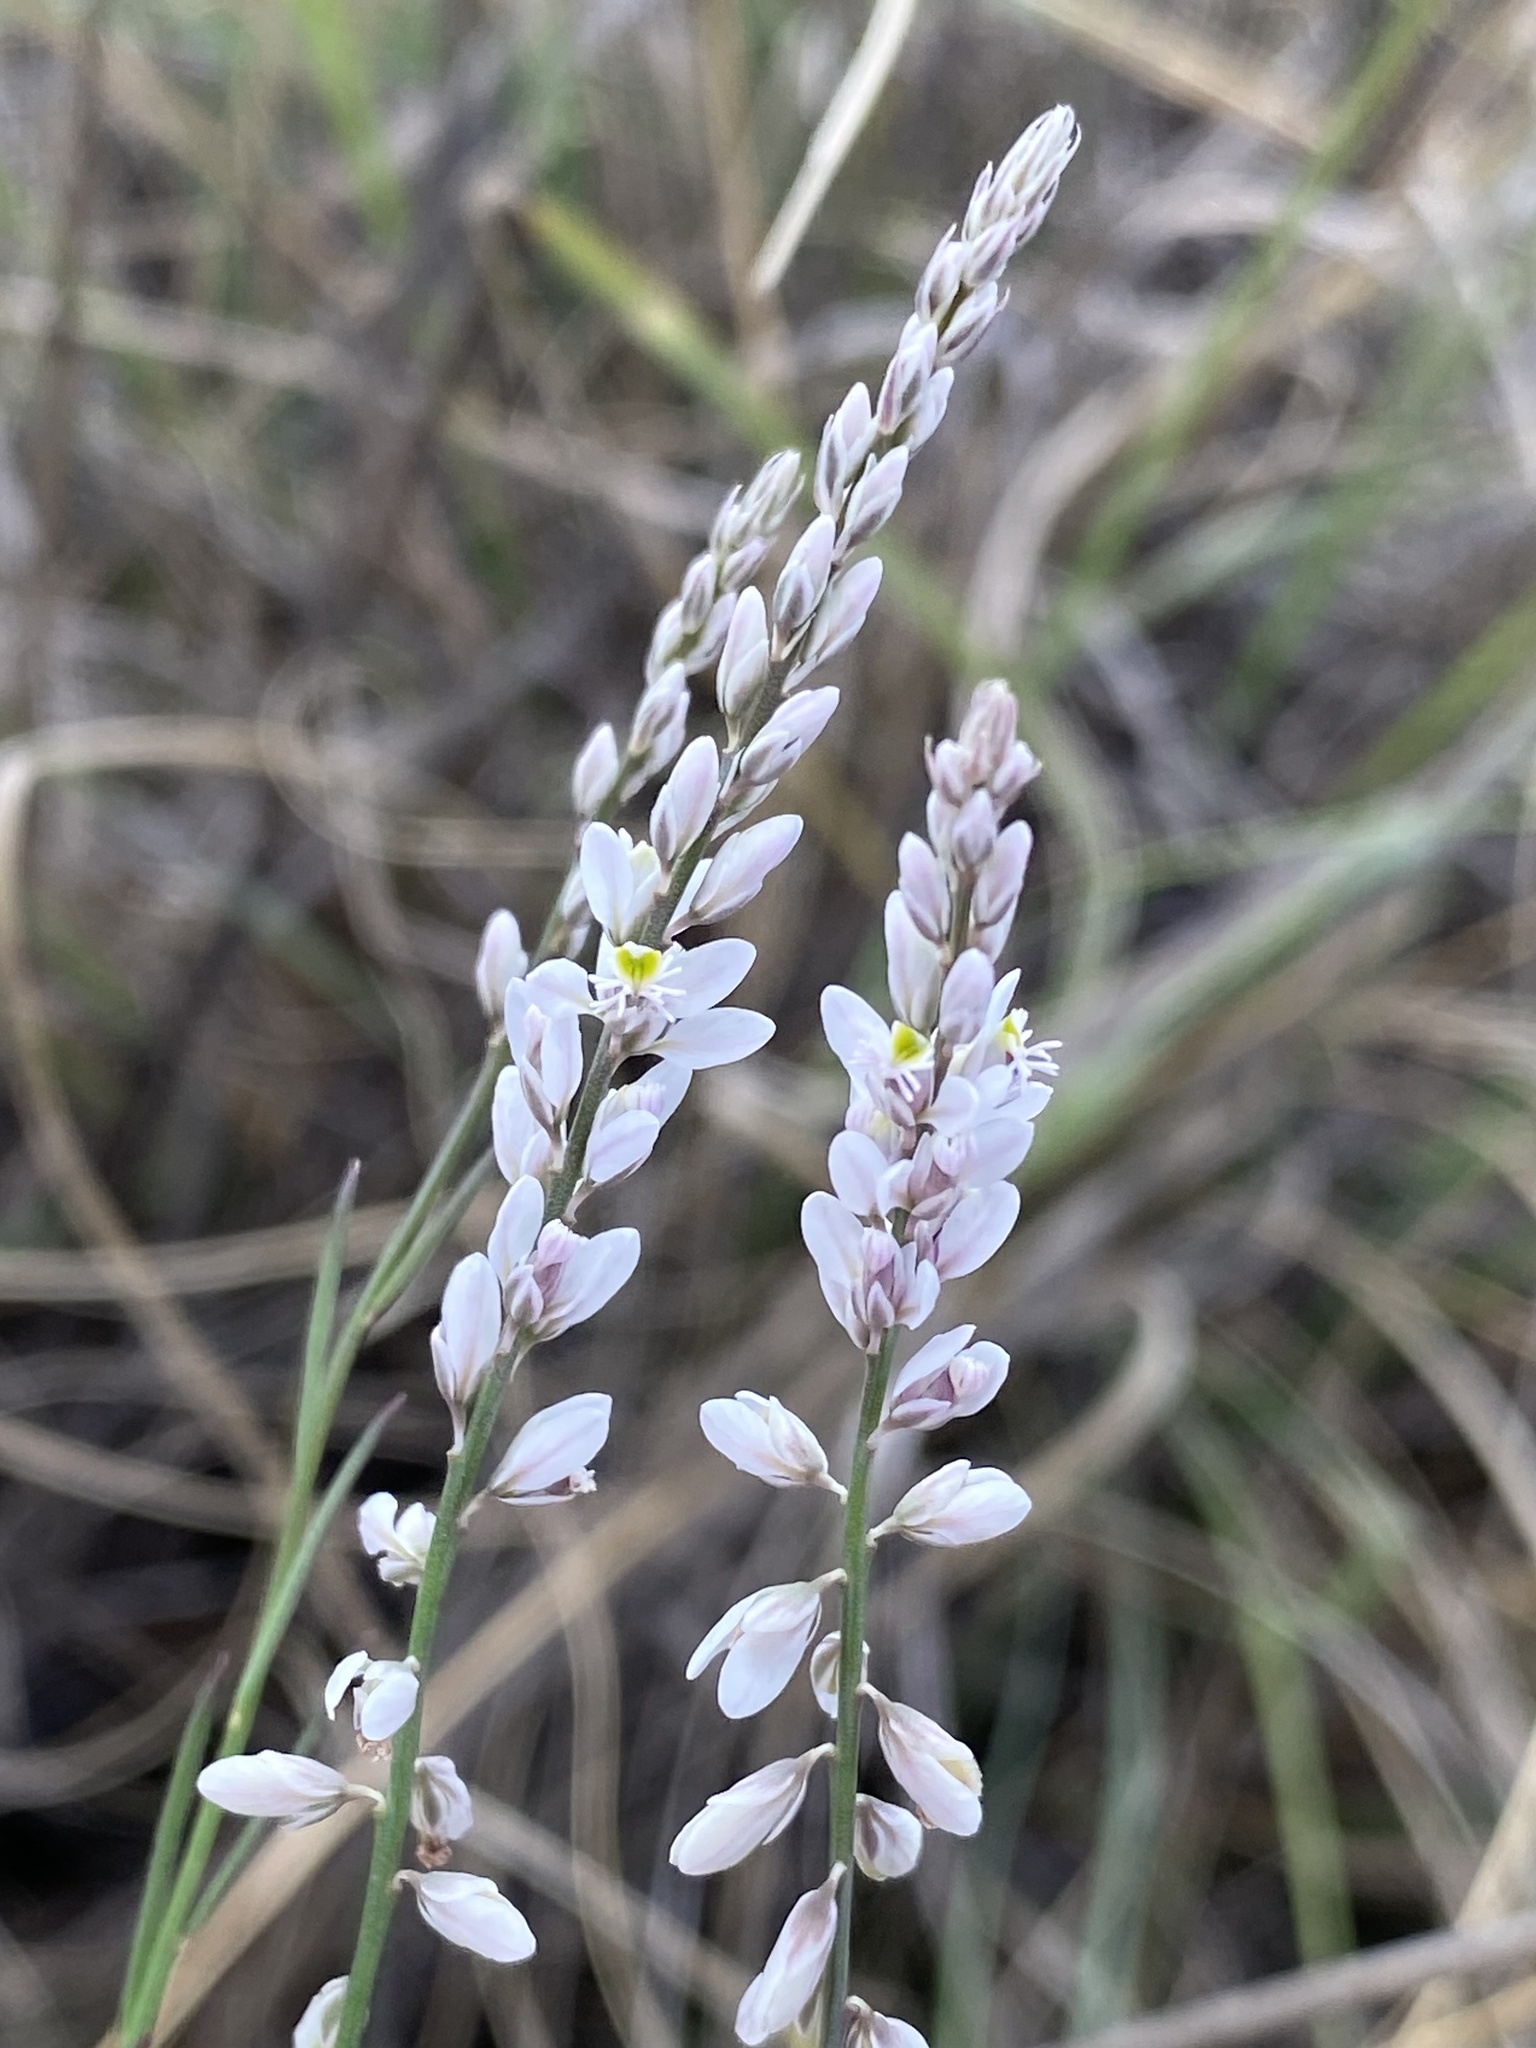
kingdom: Plantae
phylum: Tracheophyta
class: Magnoliopsida
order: Fabales
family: Polygalaceae
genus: Polygala
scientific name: Polygala hemipterocarpa
